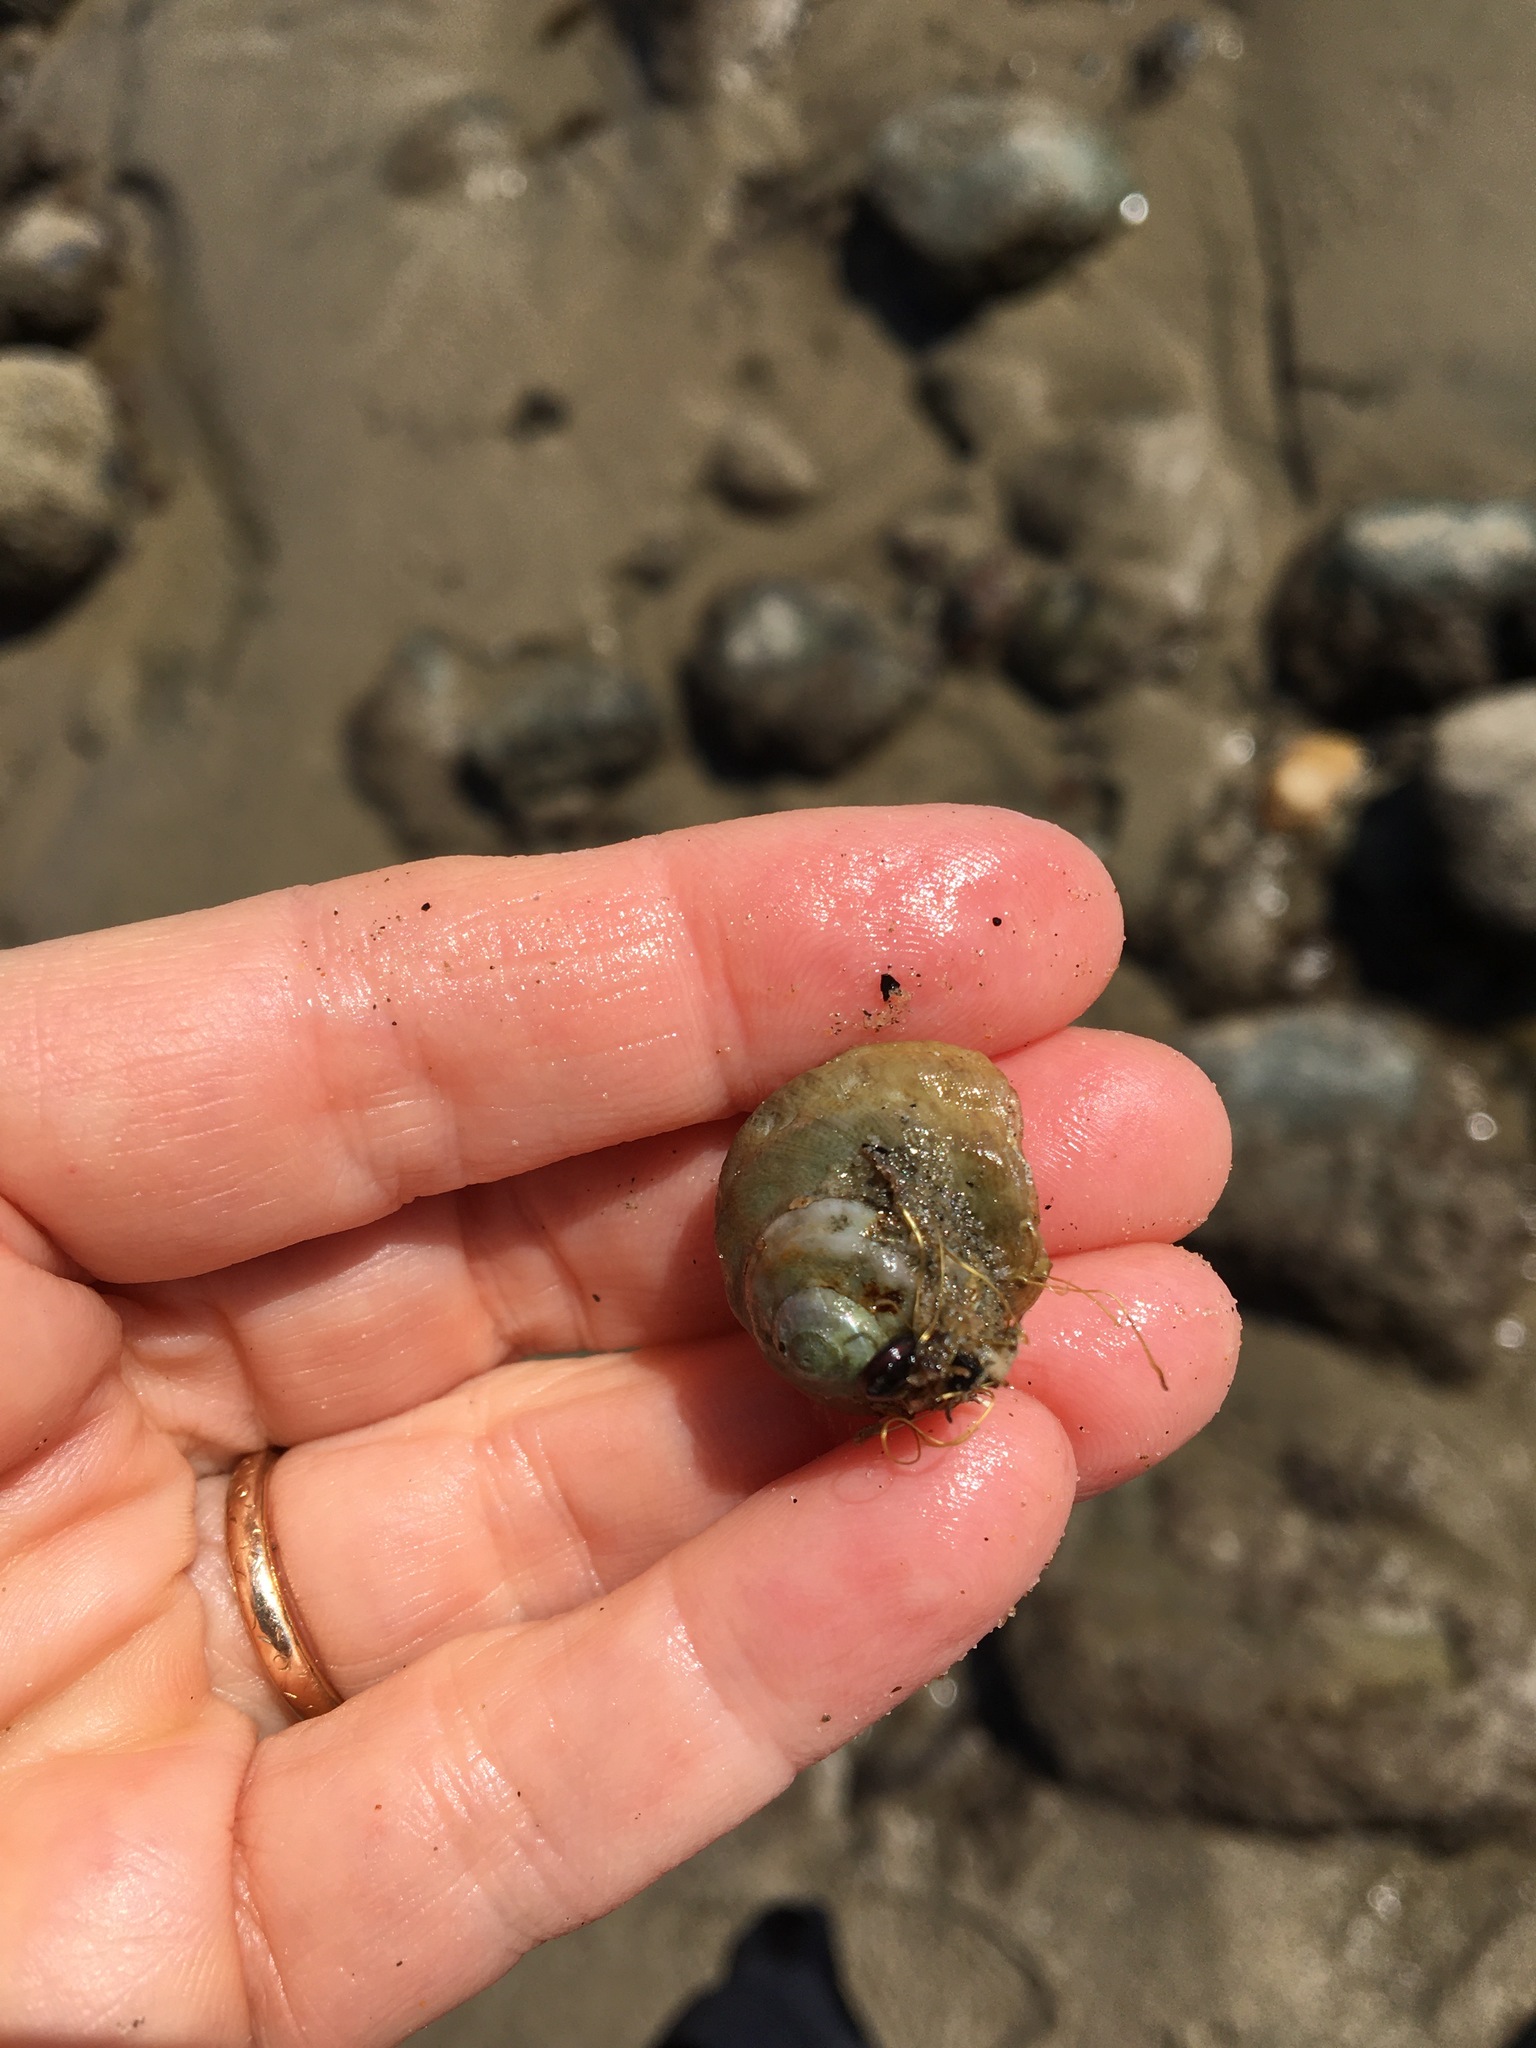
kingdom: Animalia
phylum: Mollusca
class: Gastropoda
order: Trochida
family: Tegulidae
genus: Tegula
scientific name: Tegula aureotincta
